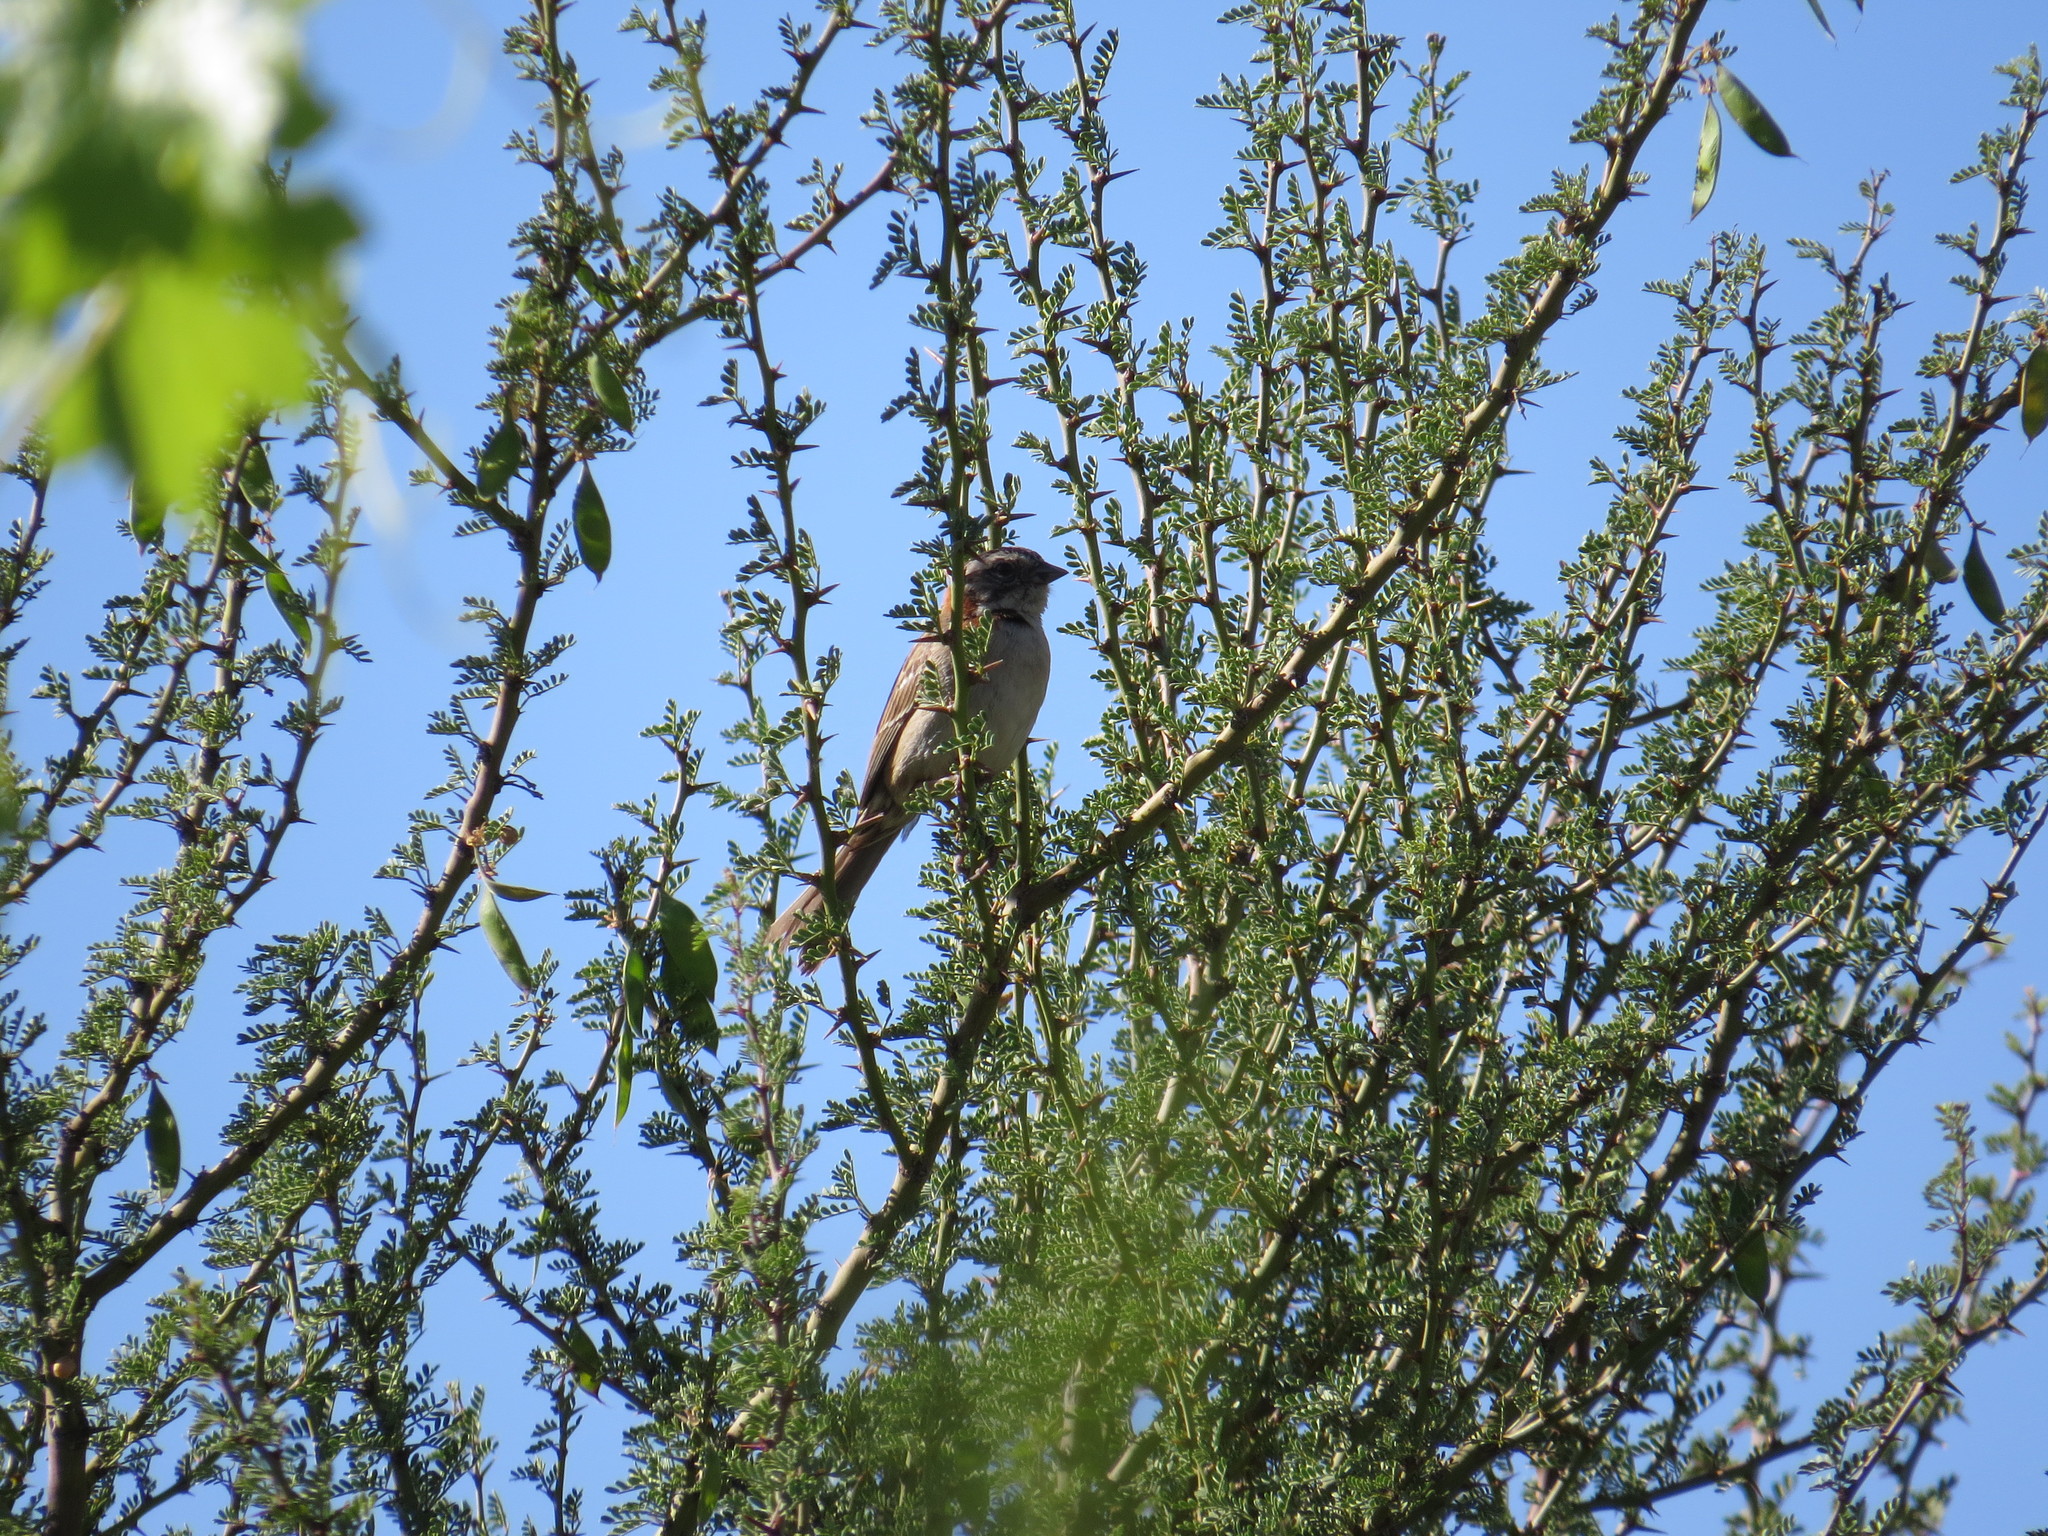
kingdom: Animalia
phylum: Chordata
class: Aves
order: Passeriformes
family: Passerellidae
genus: Zonotrichia
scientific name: Zonotrichia capensis
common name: Rufous-collared sparrow
